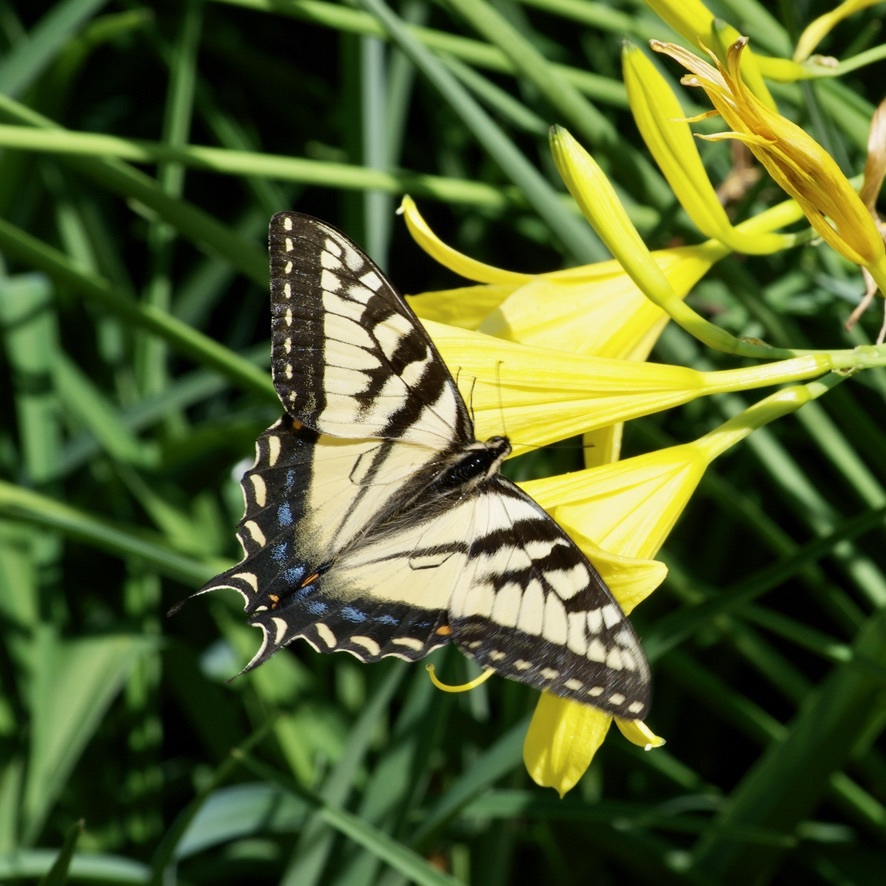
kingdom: Animalia
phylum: Arthropoda
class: Insecta
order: Lepidoptera
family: Papilionidae
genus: Papilio
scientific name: Papilio canadensis
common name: Canadian tiger swallowtail
